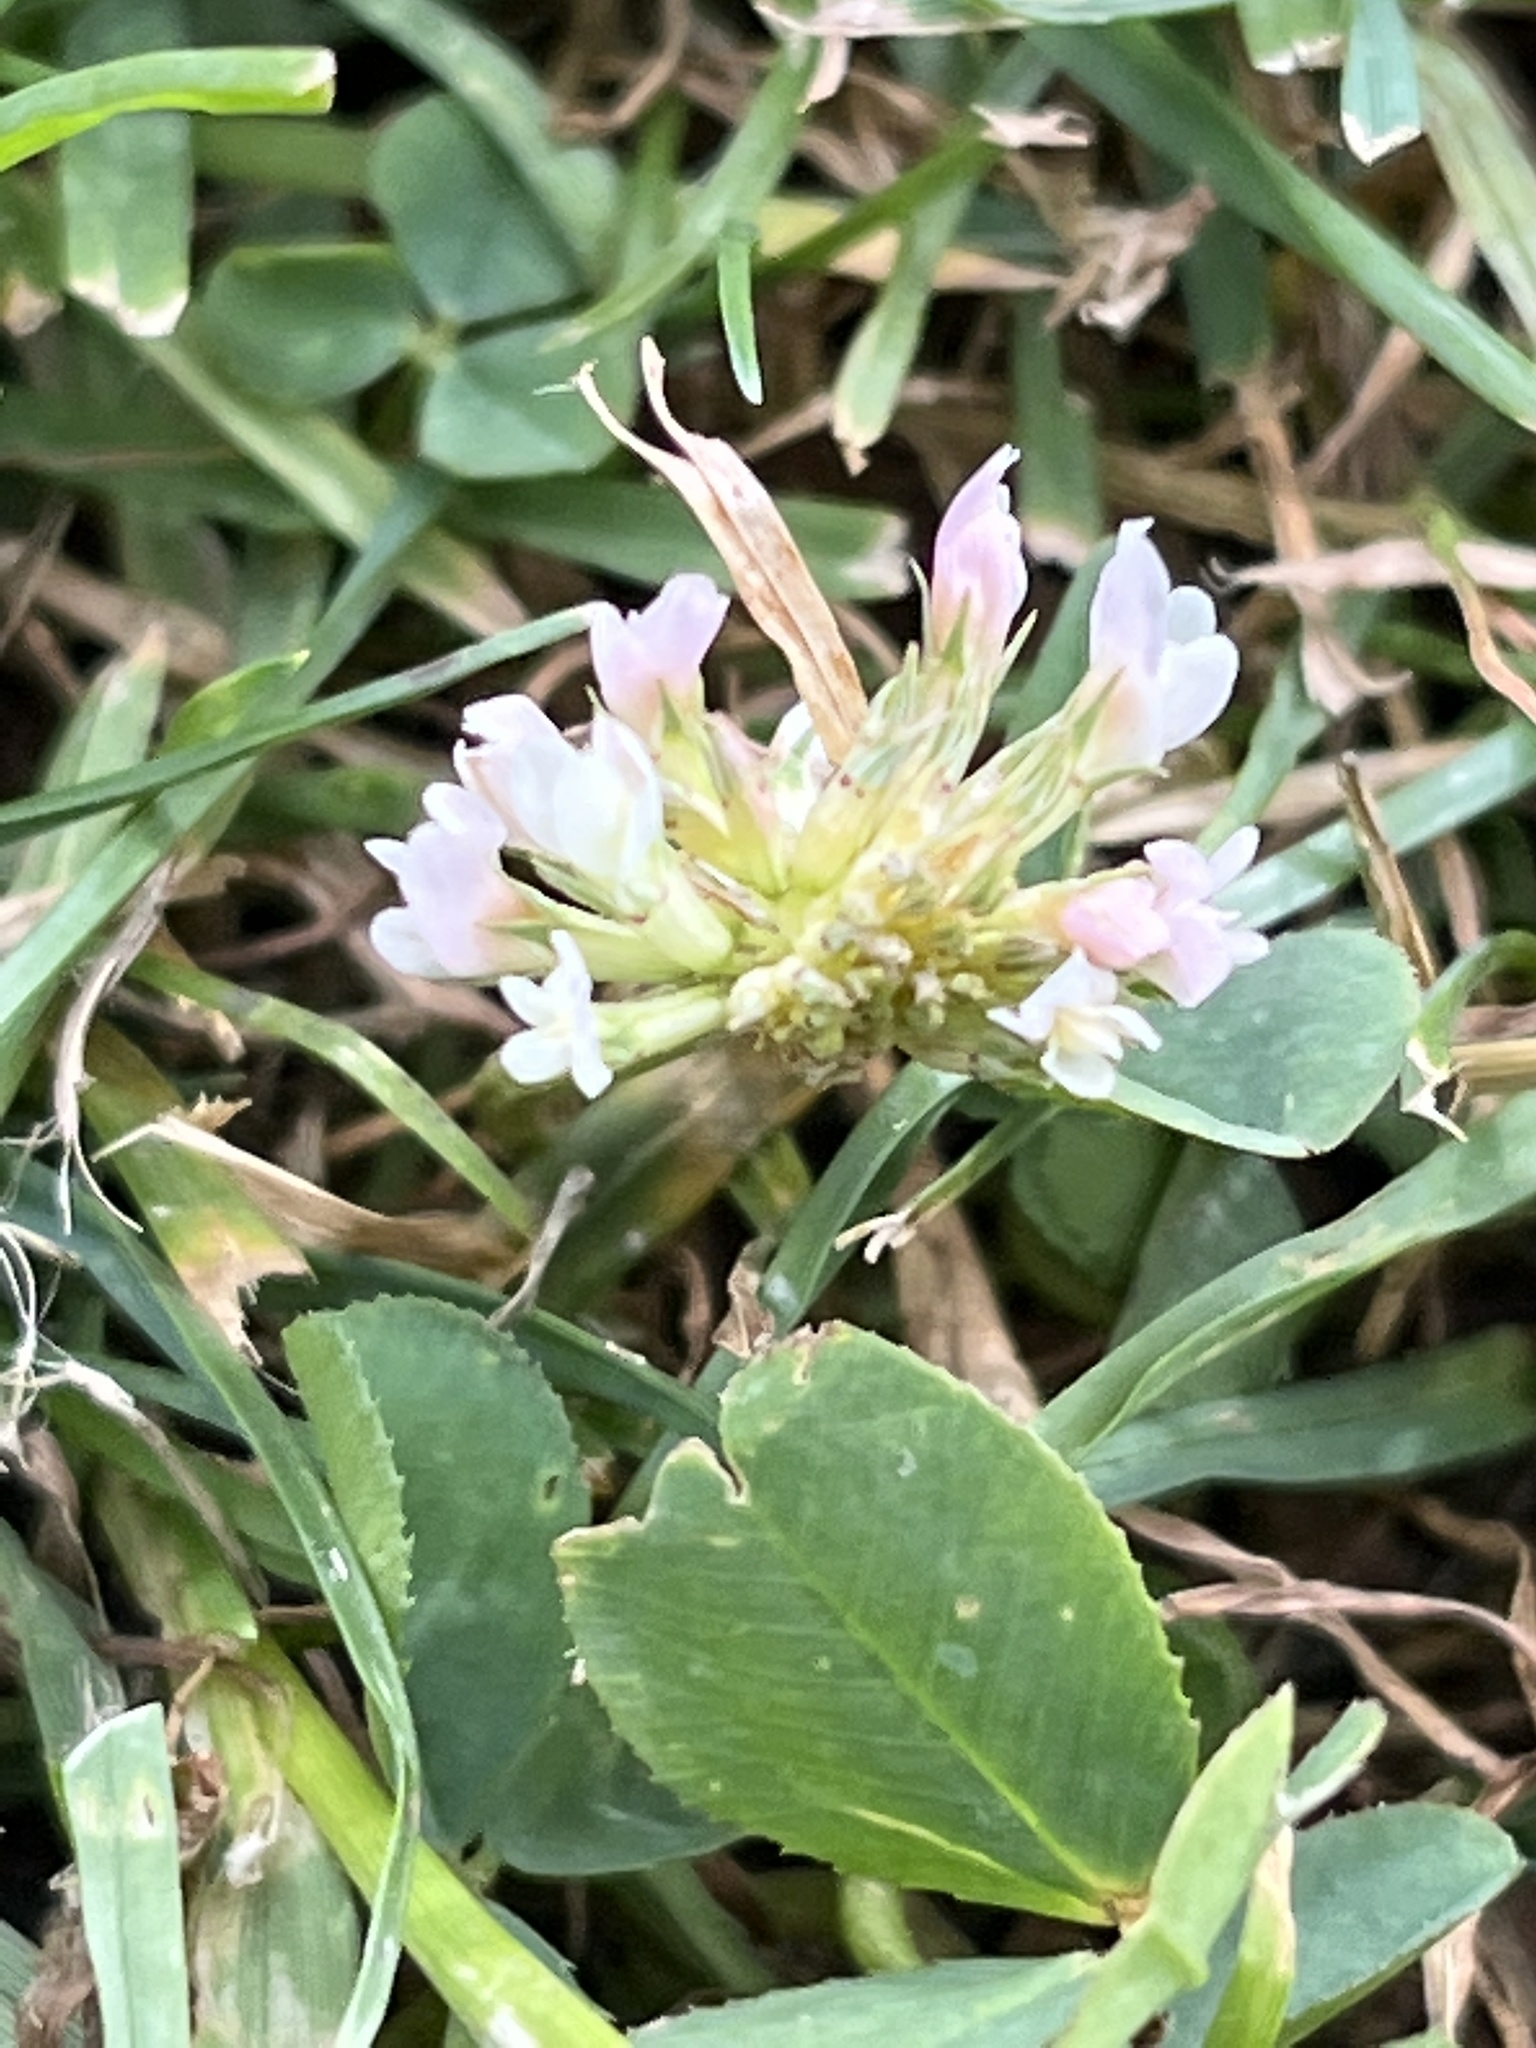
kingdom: Plantae
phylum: Tracheophyta
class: Magnoliopsida
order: Fabales
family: Fabaceae
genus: Trifolium
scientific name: Trifolium repens
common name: White clover
